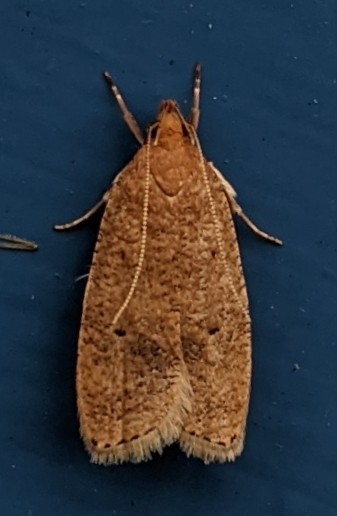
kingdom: Animalia
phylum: Arthropoda
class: Insecta
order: Lepidoptera
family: Depressariidae
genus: Psilocorsis
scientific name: Psilocorsis reflexella
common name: Dotted leaftier moth
